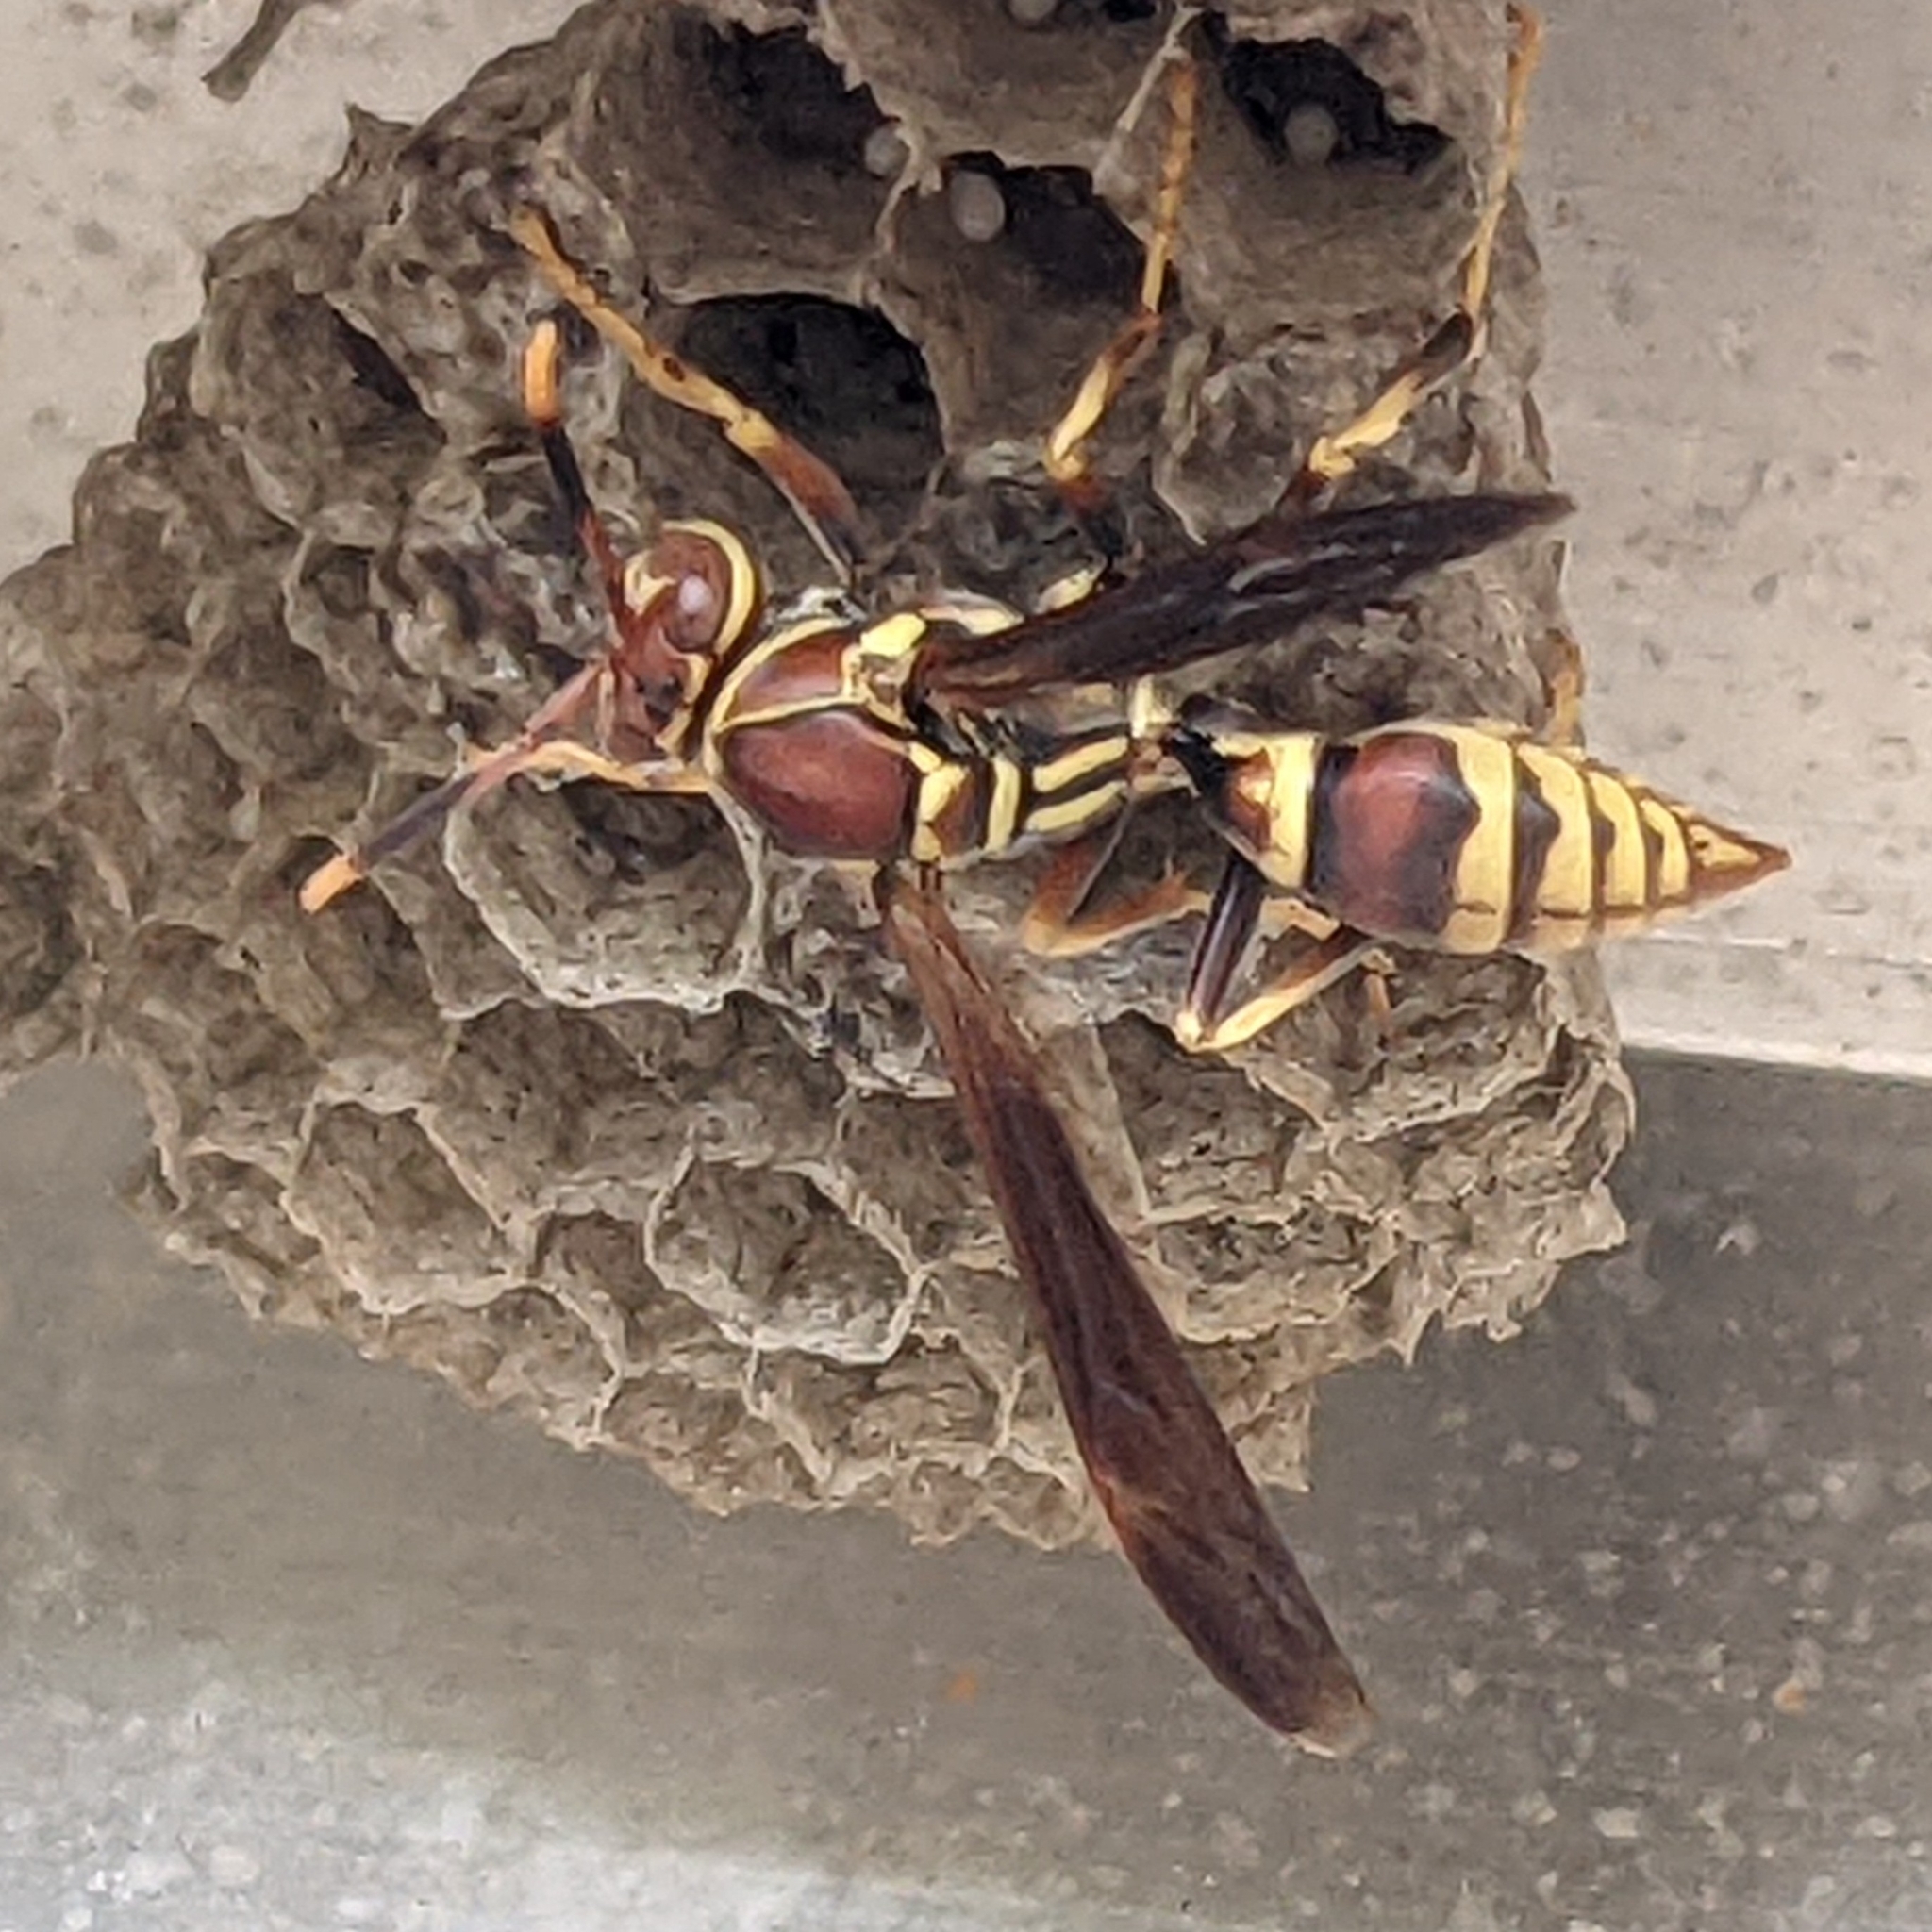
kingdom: Animalia
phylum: Arthropoda
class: Insecta
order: Hymenoptera
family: Eumenidae
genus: Polistes
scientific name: Polistes exclamans
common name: Paper wasp
